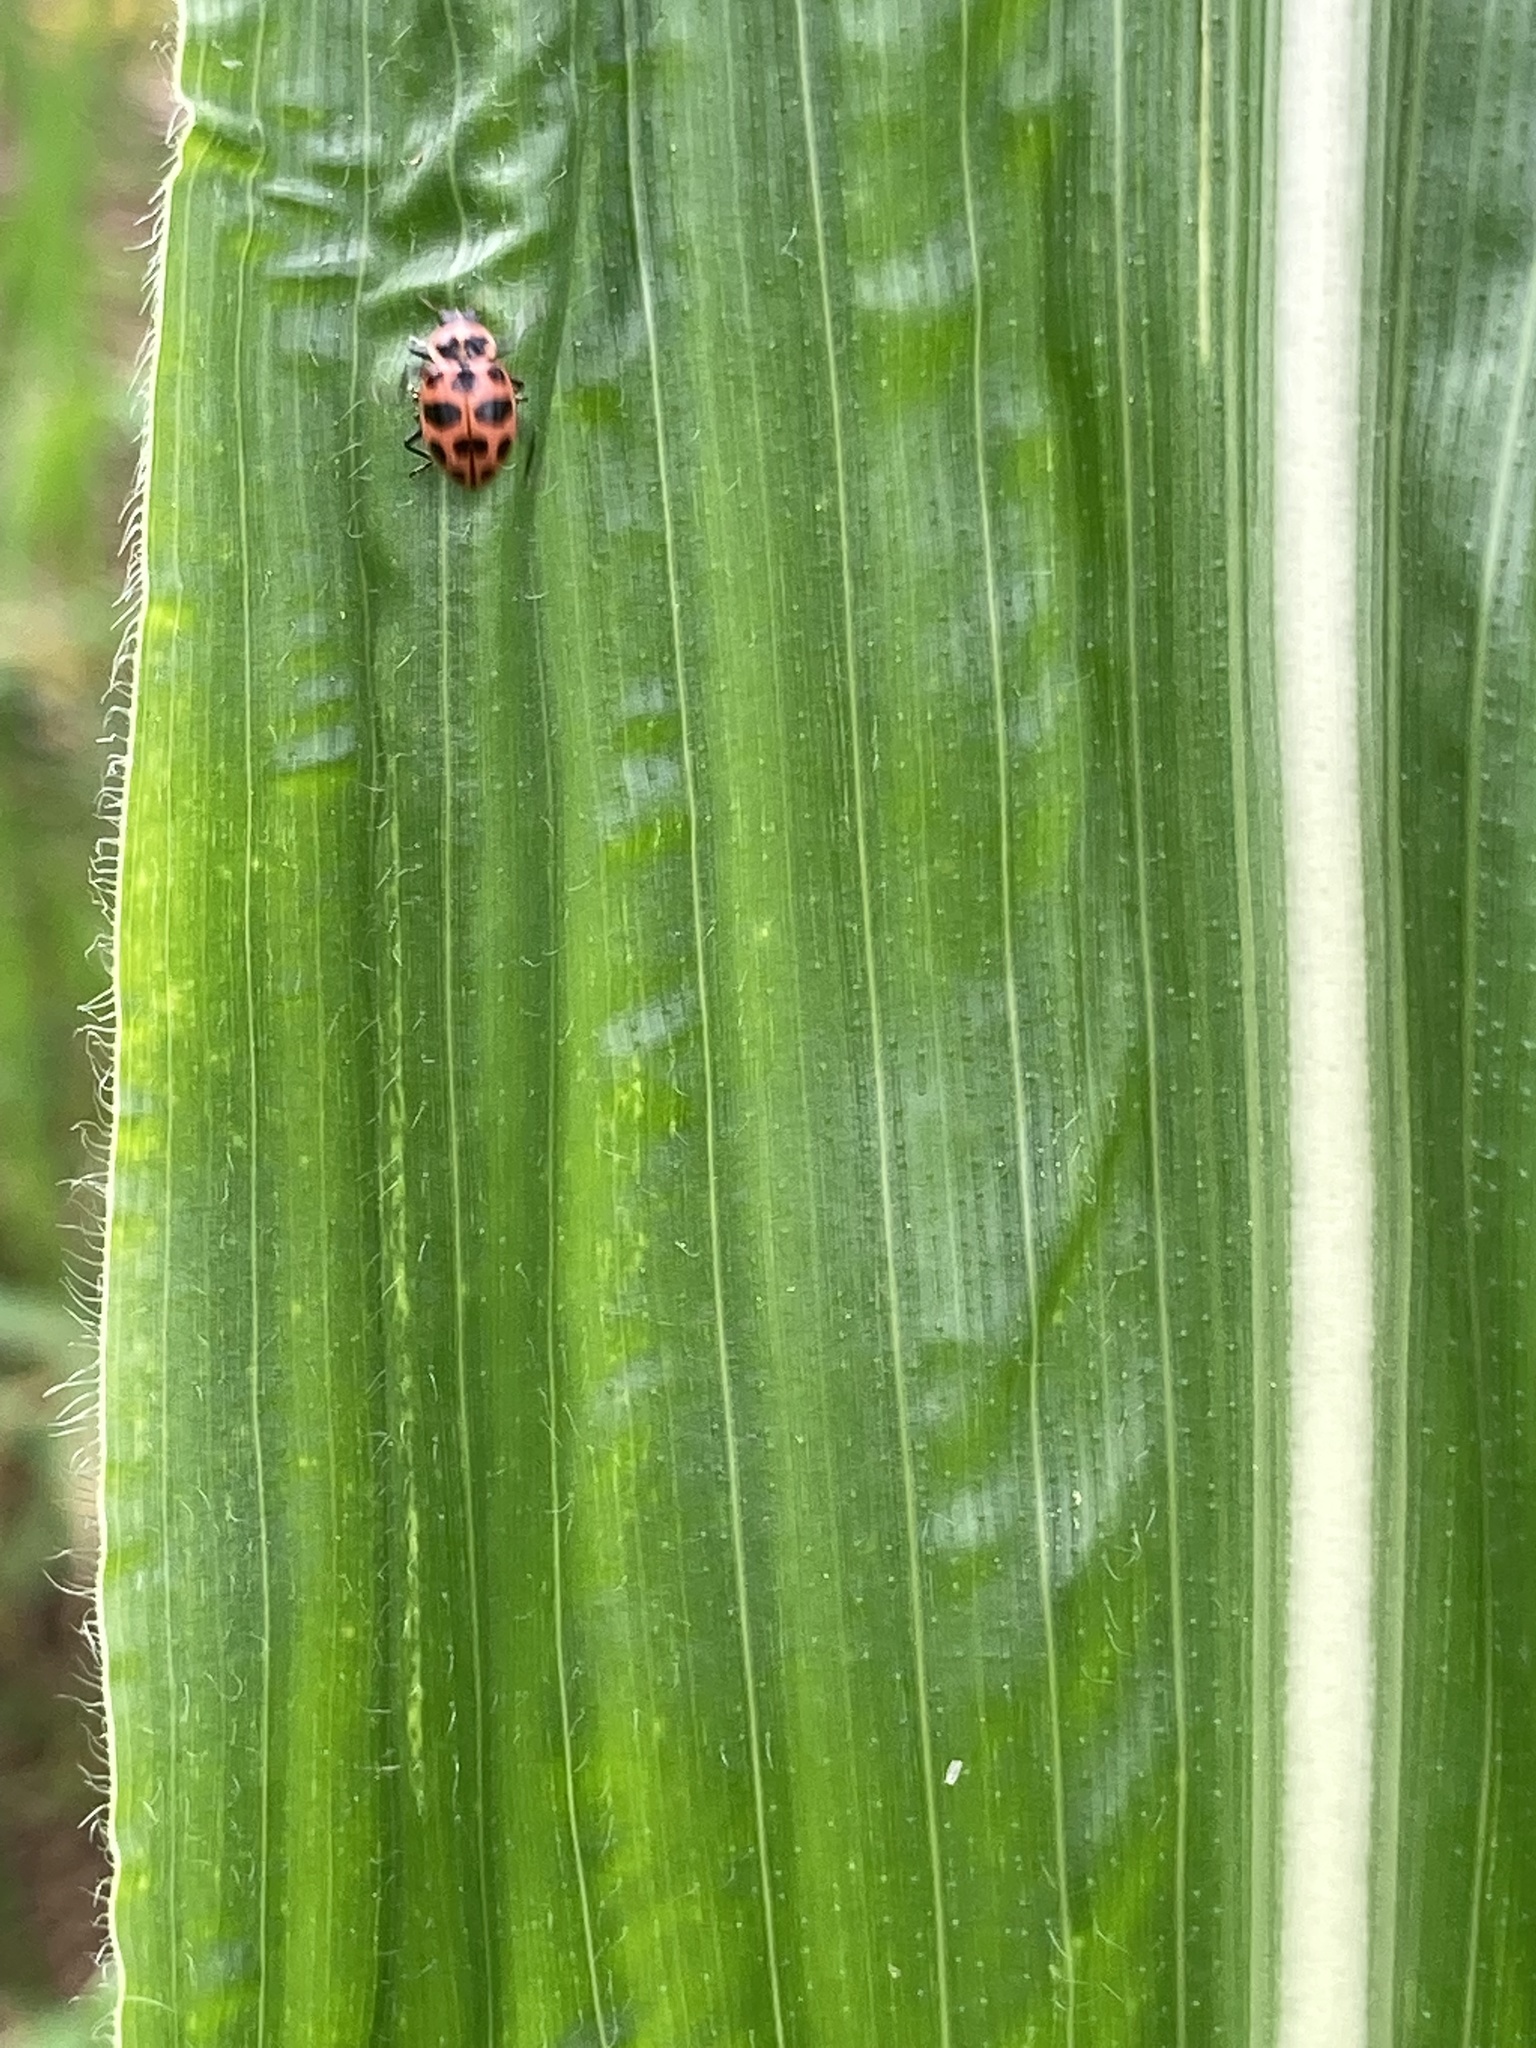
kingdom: Animalia
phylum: Arthropoda
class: Insecta
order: Coleoptera
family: Coccinellidae
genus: Coleomegilla
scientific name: Coleomegilla maculata
